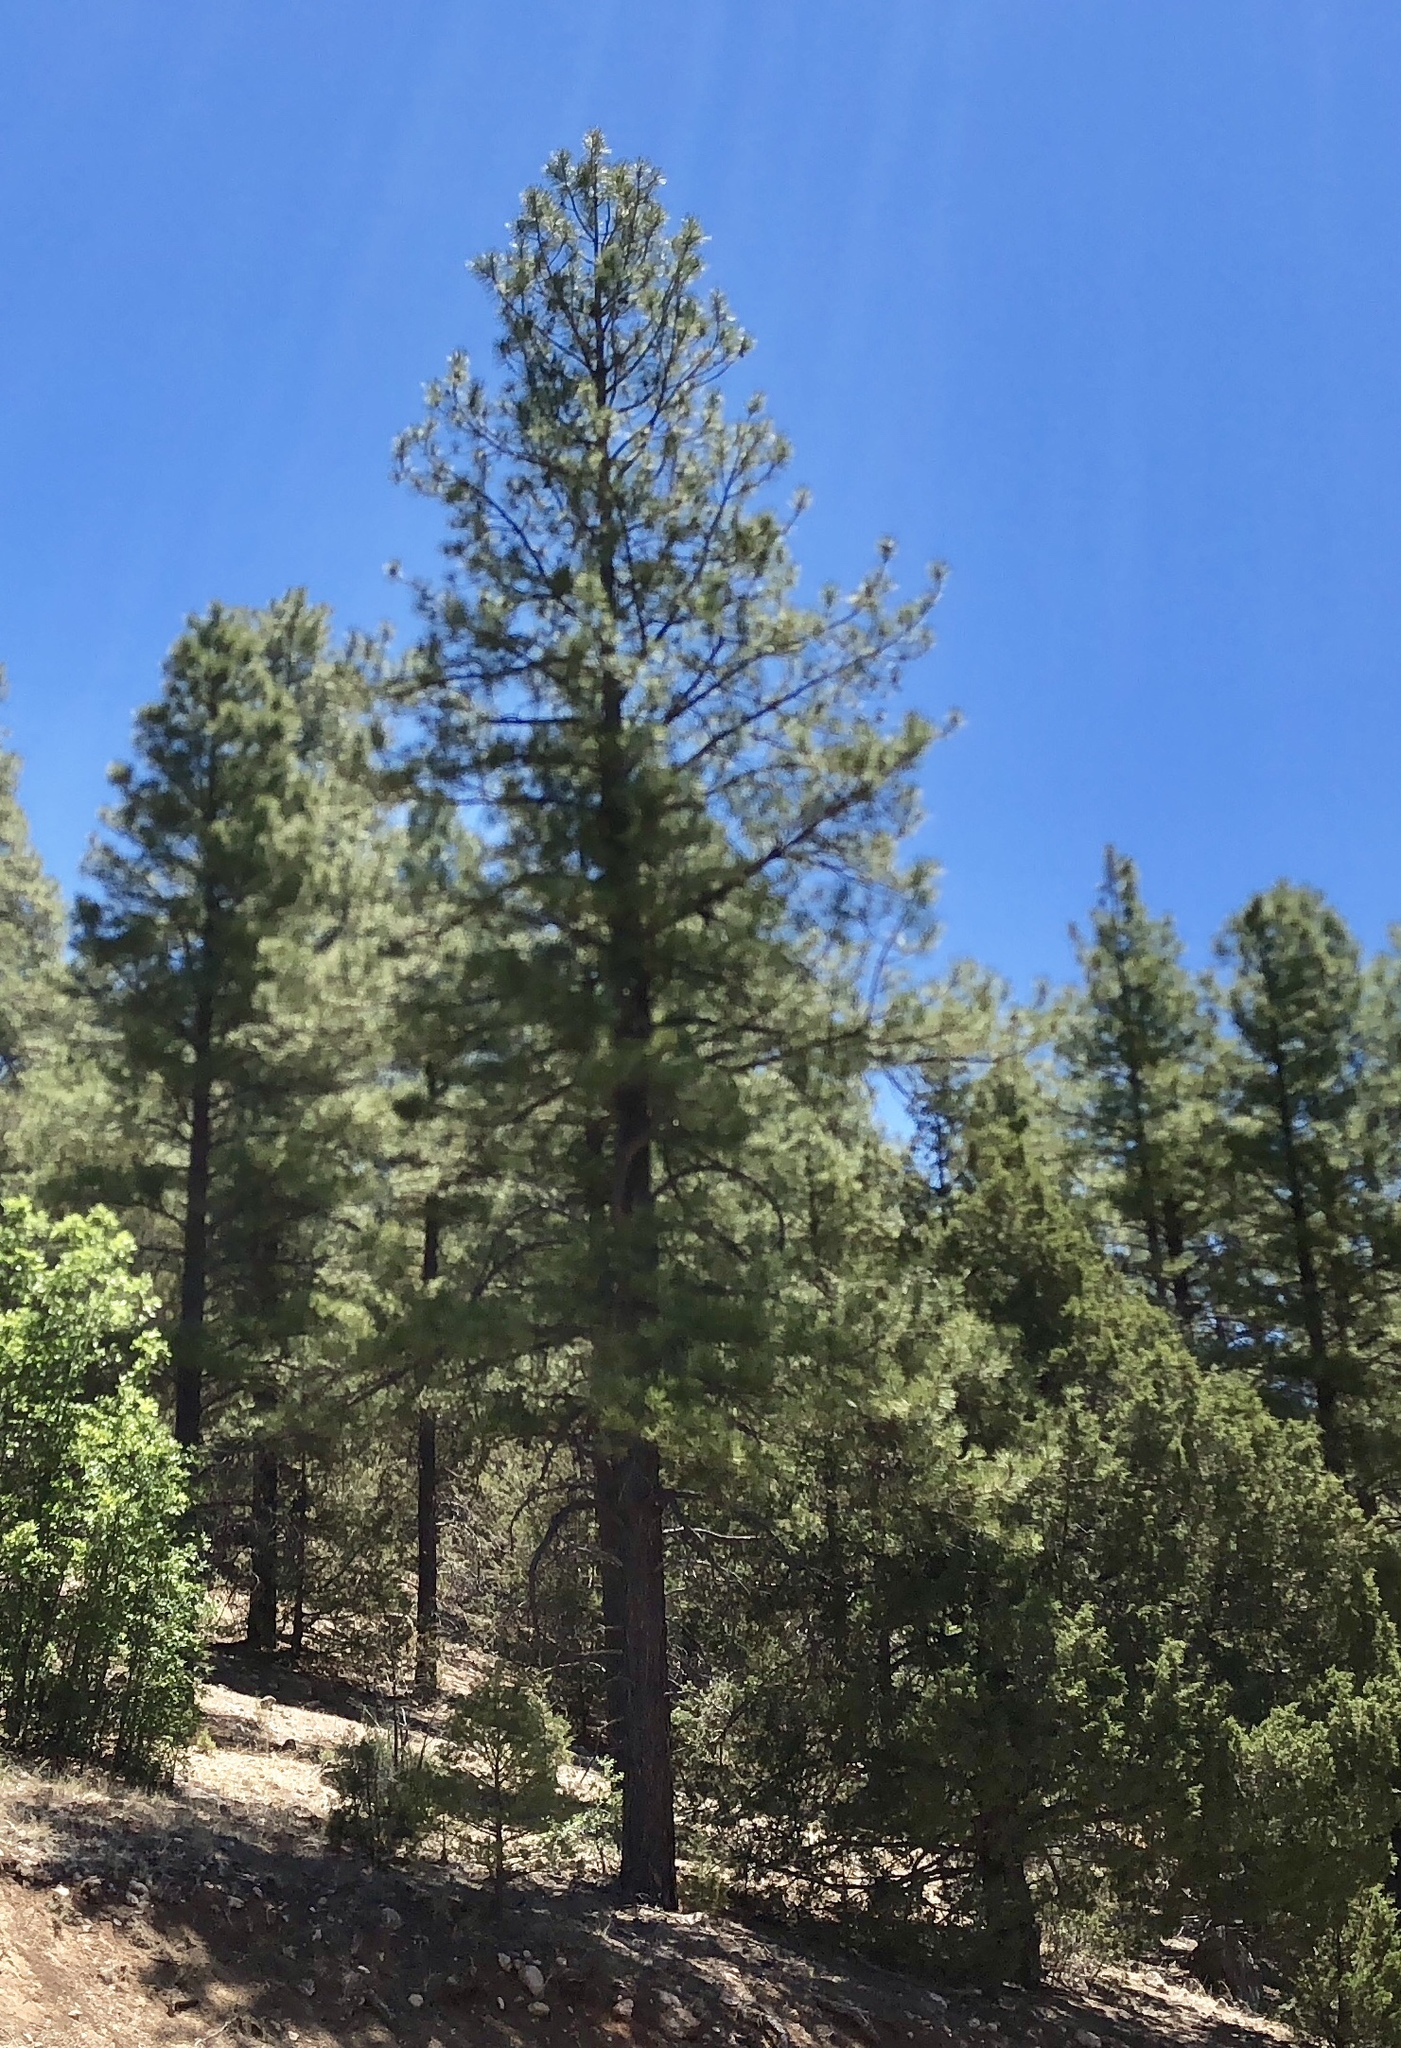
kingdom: Plantae
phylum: Tracheophyta
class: Pinopsida
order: Pinales
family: Pinaceae
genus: Pinus
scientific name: Pinus ponderosa
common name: Western yellow-pine
